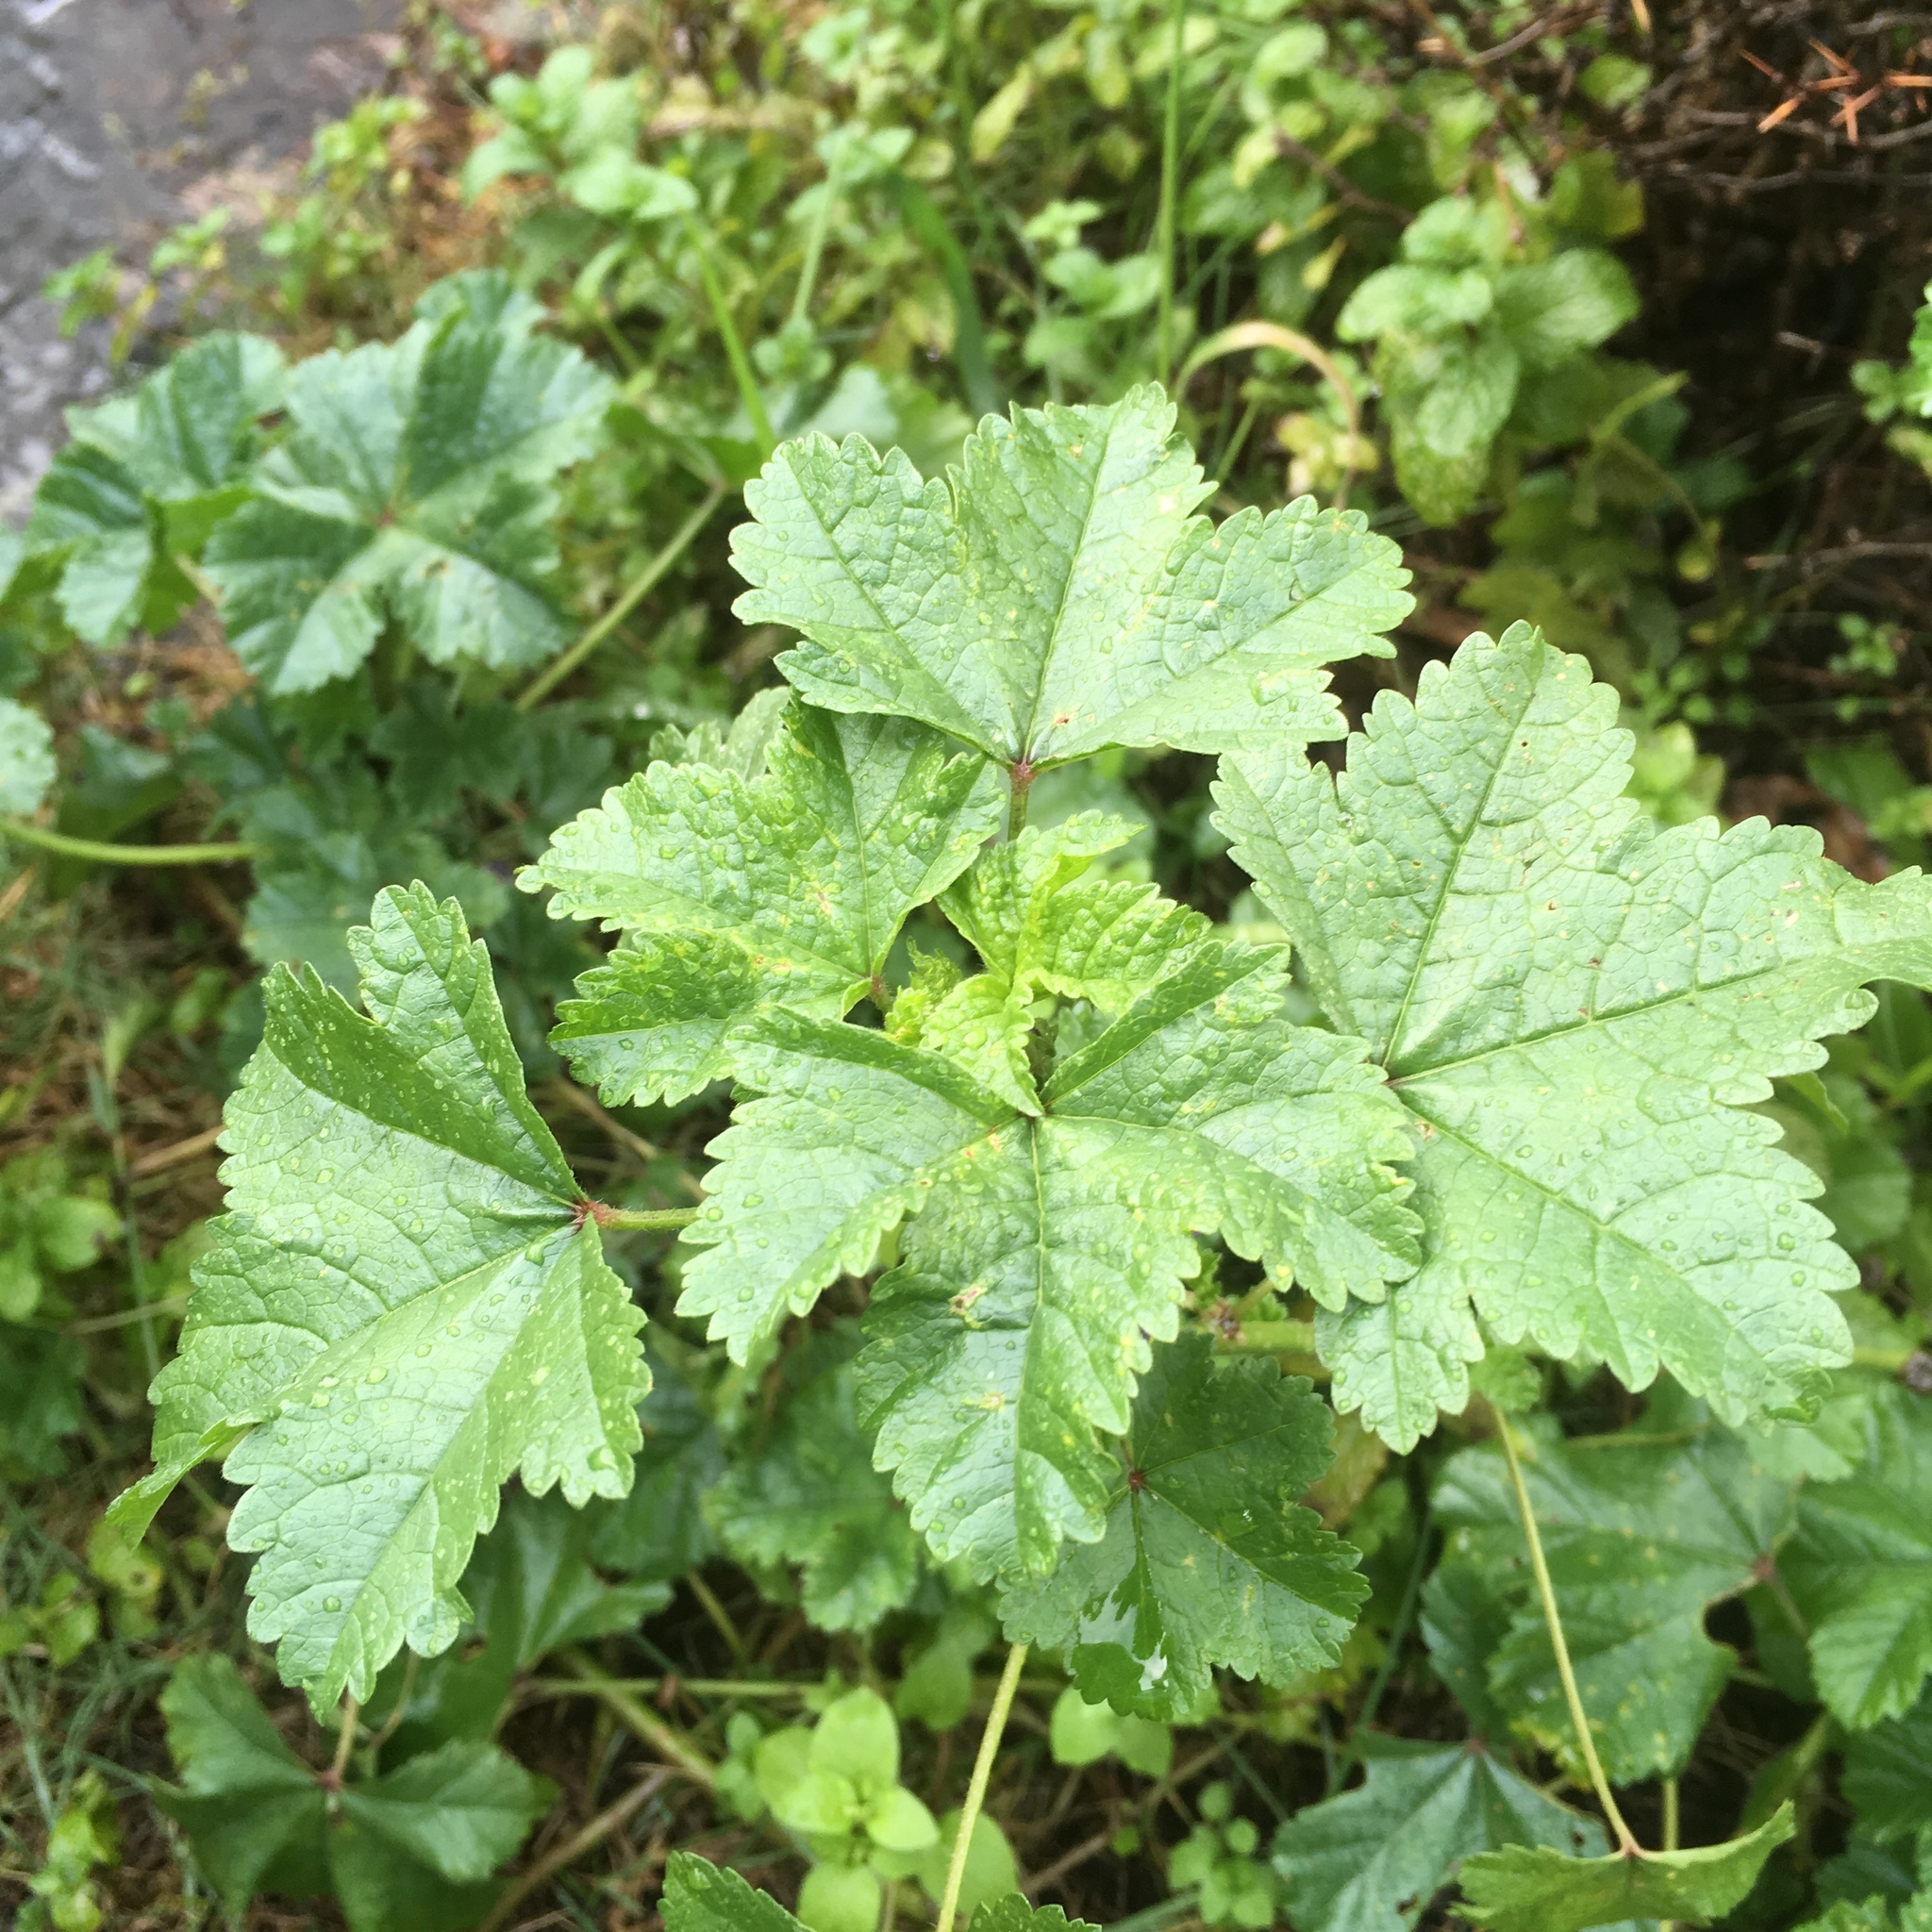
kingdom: Plantae
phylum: Tracheophyta
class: Magnoliopsida
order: Malvales
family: Malvaceae
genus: Malva
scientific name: Malva sylvestris
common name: Common mallow
